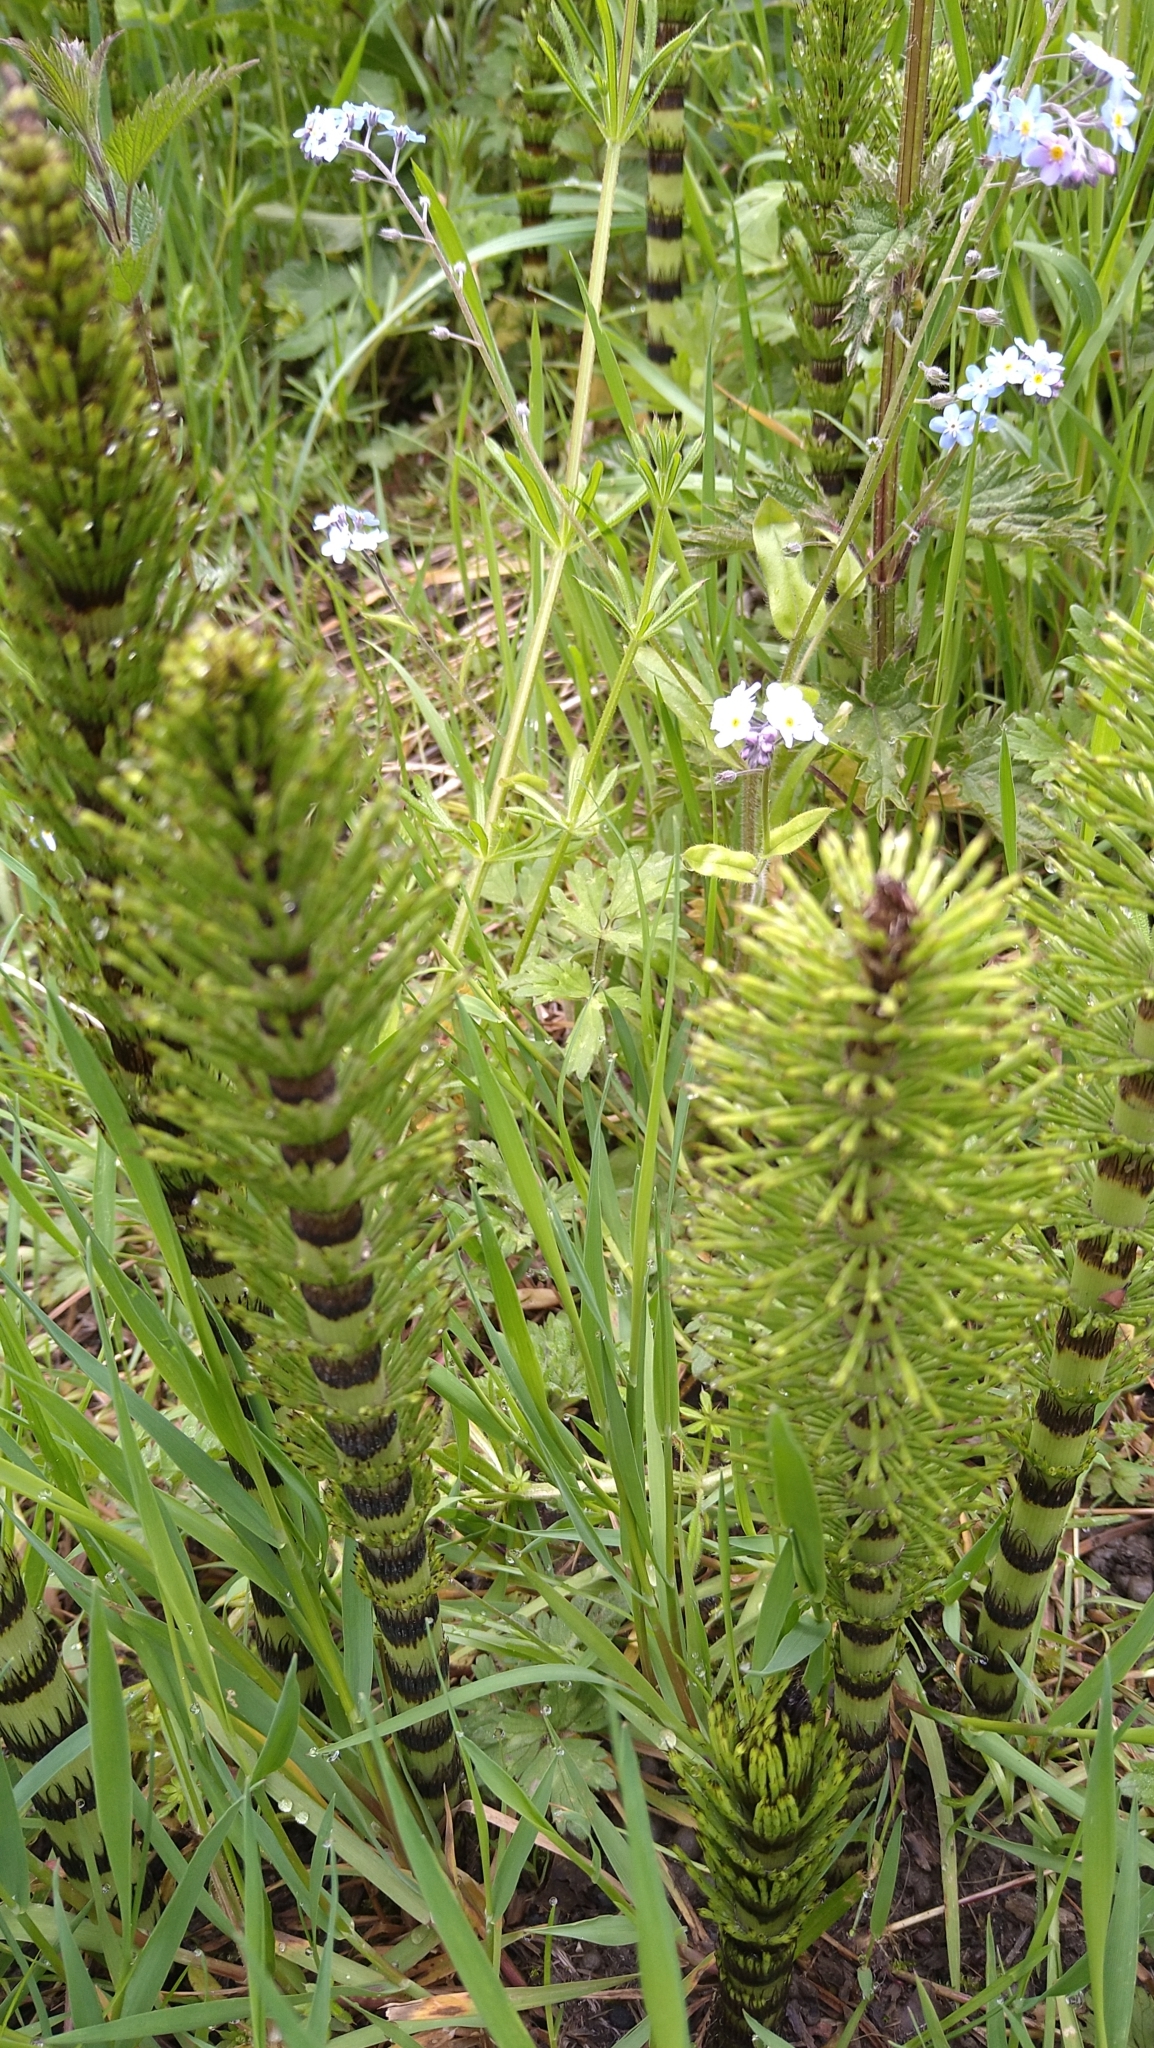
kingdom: Plantae
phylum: Tracheophyta
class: Polypodiopsida
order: Equisetales
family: Equisetaceae
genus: Equisetum
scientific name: Equisetum telmateia
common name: Great horsetail
